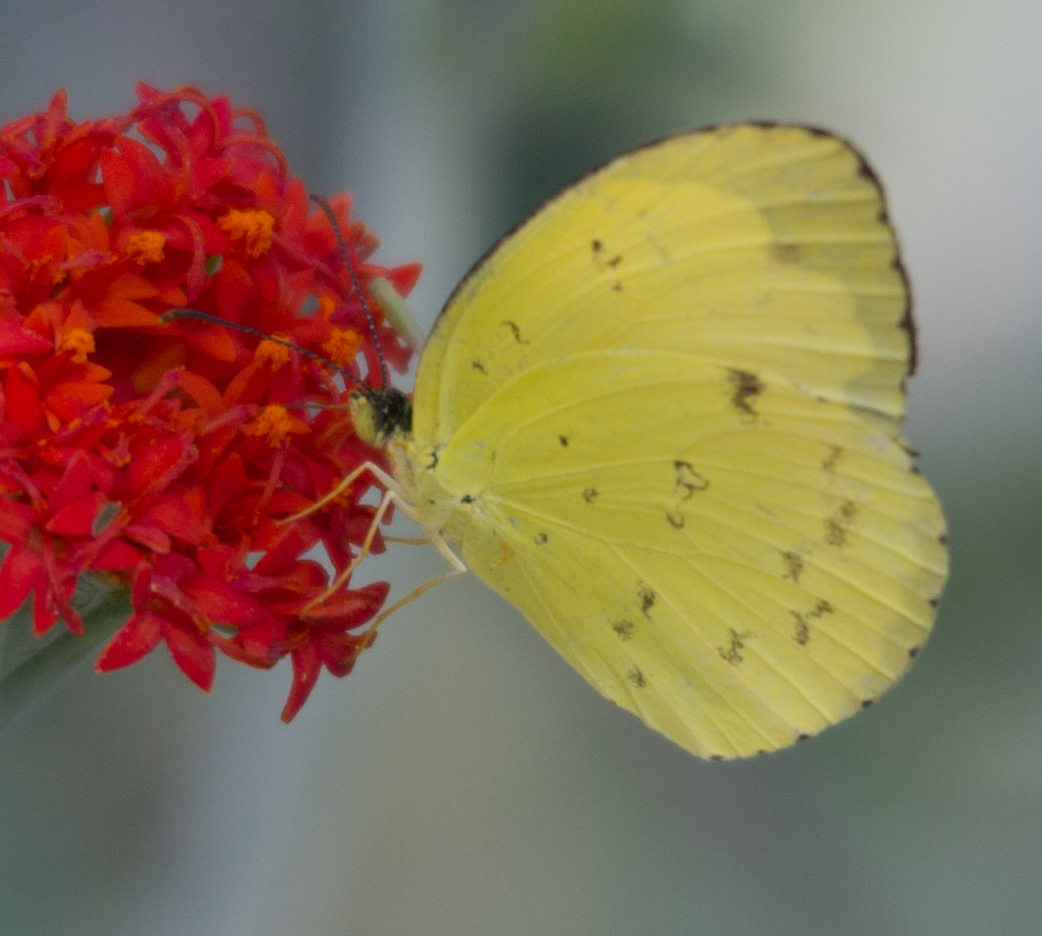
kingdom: Animalia
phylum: Arthropoda
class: Insecta
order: Lepidoptera
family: Pieridae
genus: Eurema
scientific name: Eurema hecabe
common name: Pale grass yellow
